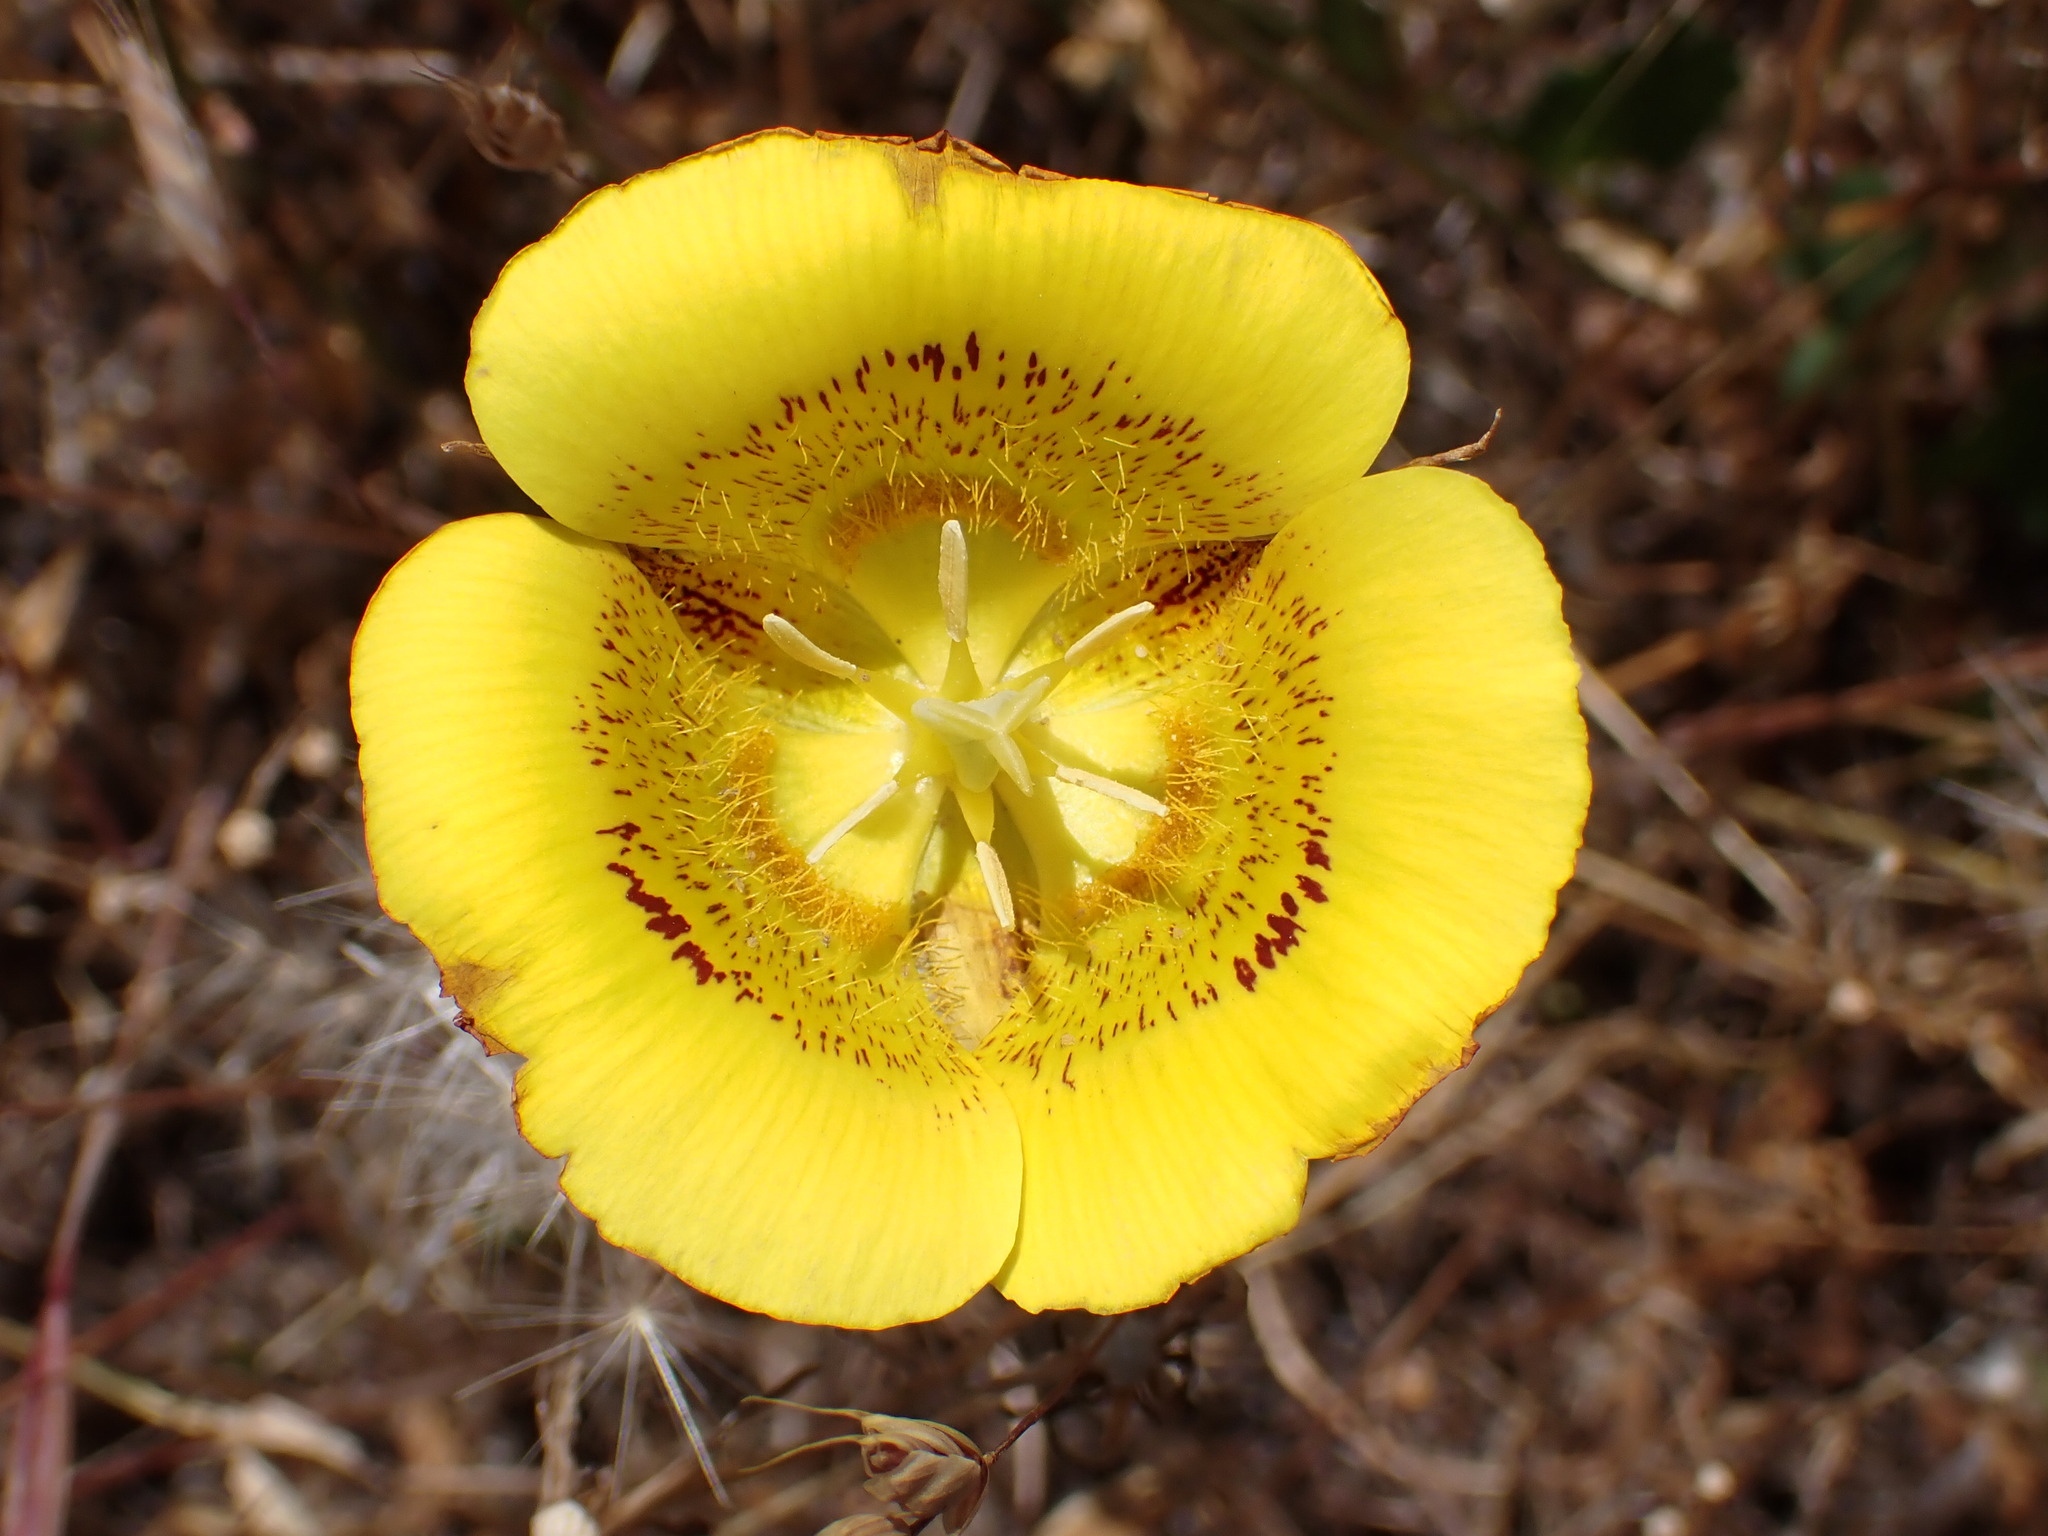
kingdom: Plantae
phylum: Tracheophyta
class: Liliopsida
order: Liliales
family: Liliaceae
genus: Calochortus
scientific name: Calochortus luteus
